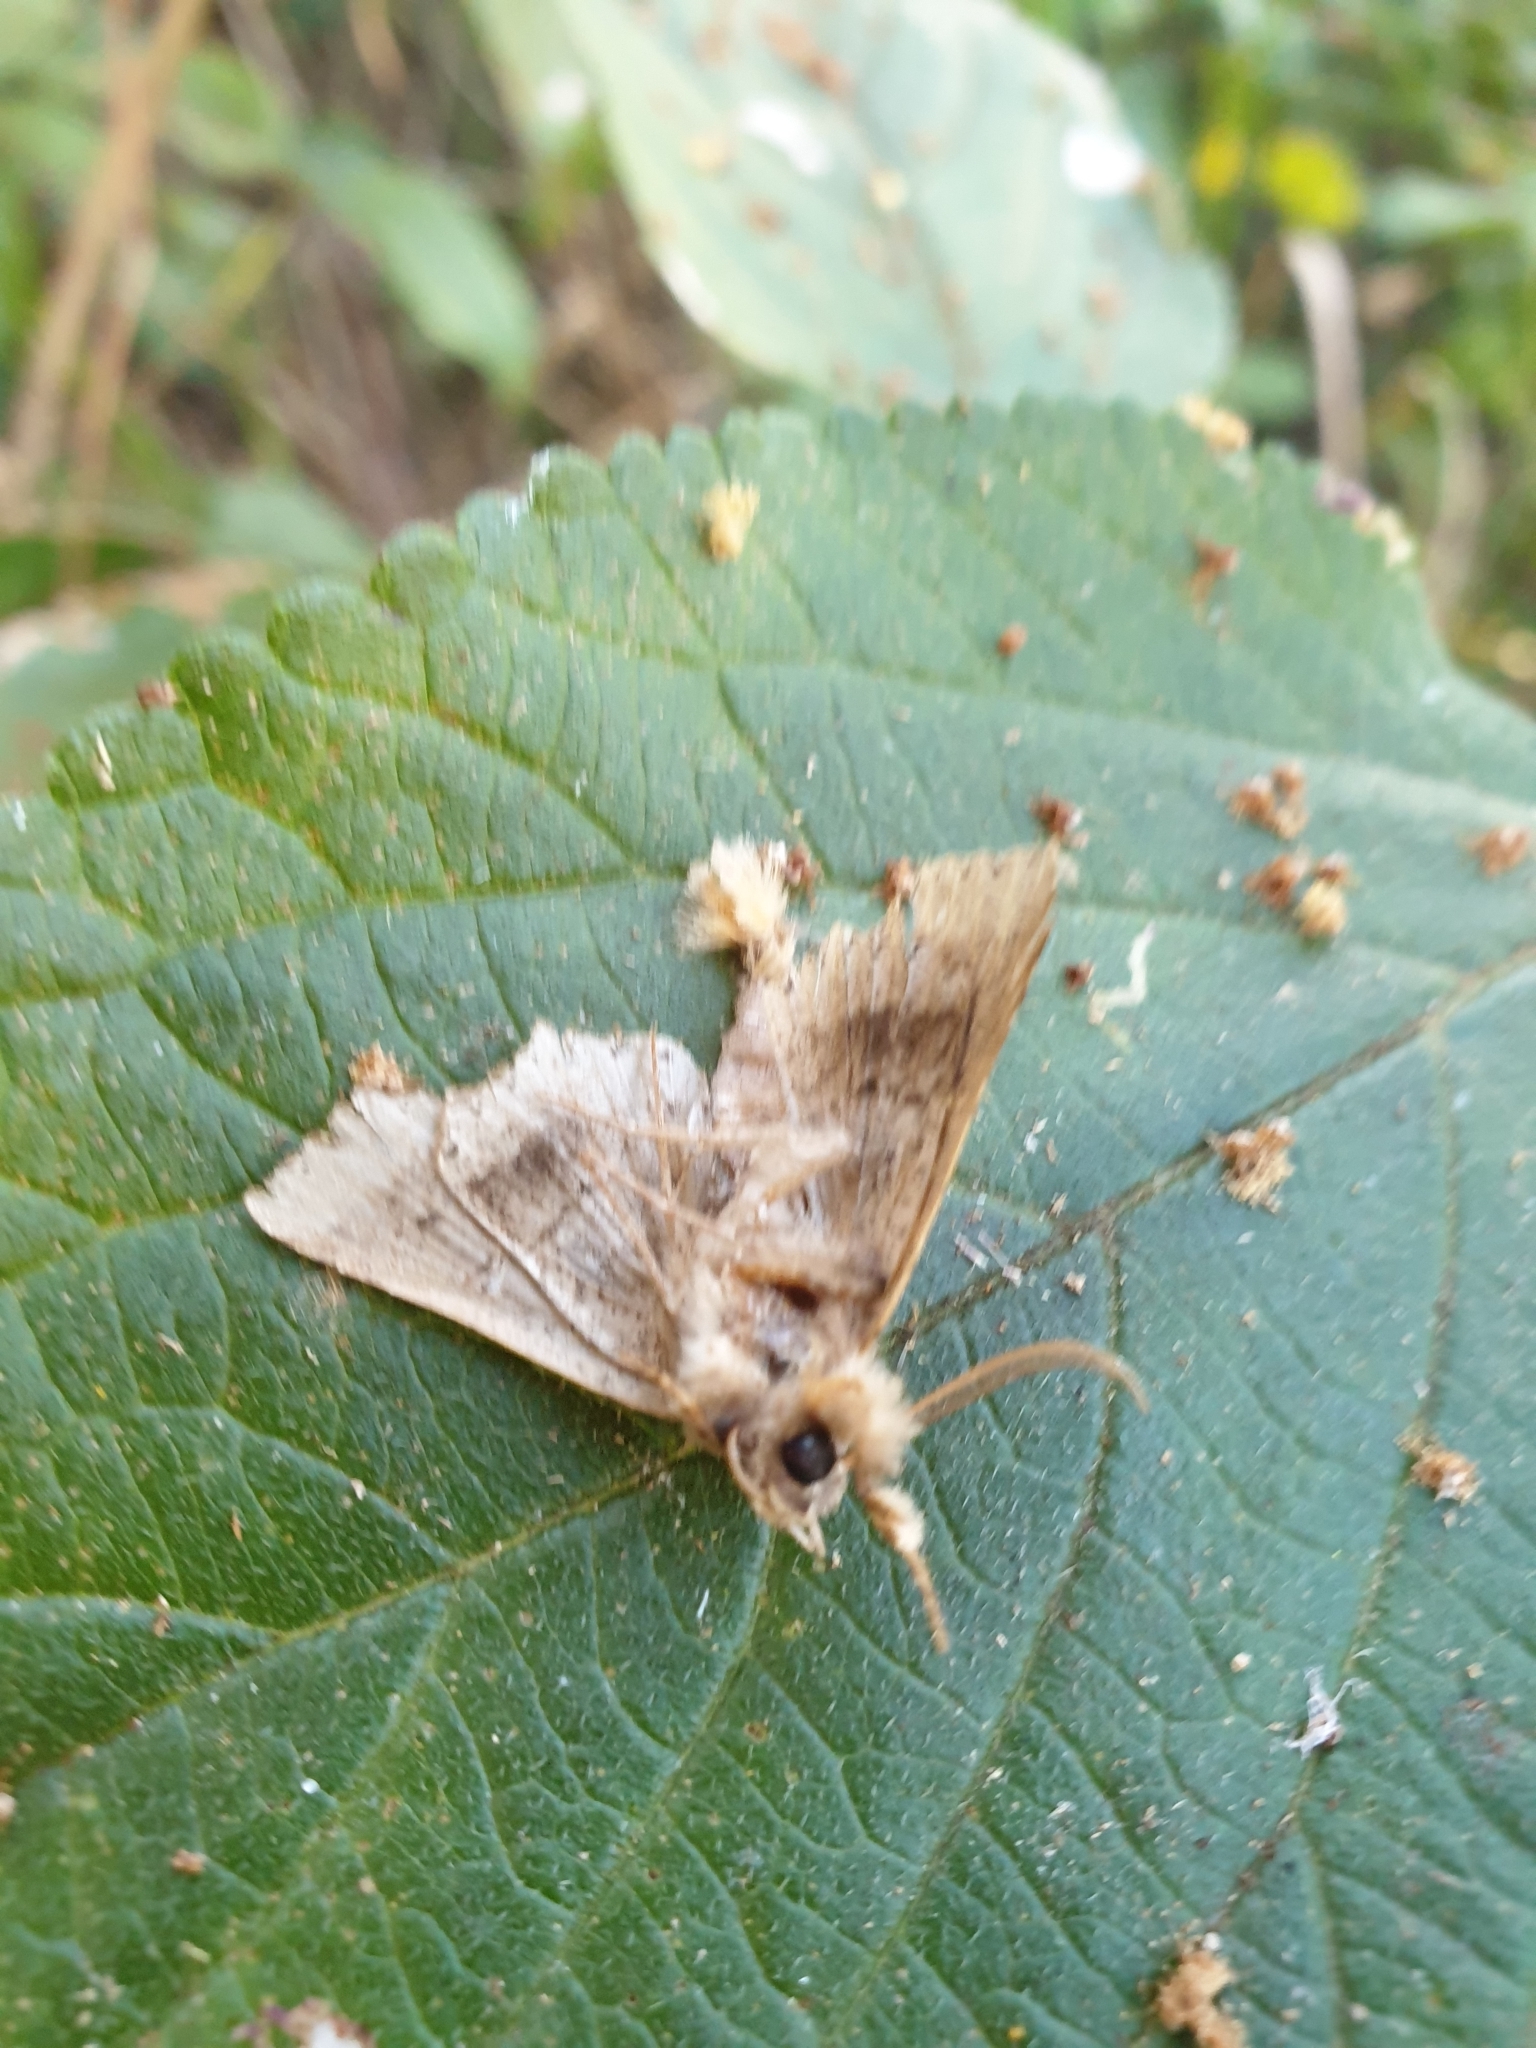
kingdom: Animalia
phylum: Arthropoda
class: Insecta
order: Lepidoptera
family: Euteliidae
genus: Targalla
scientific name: Targalla delatrix
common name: Eugenia caterpillar
